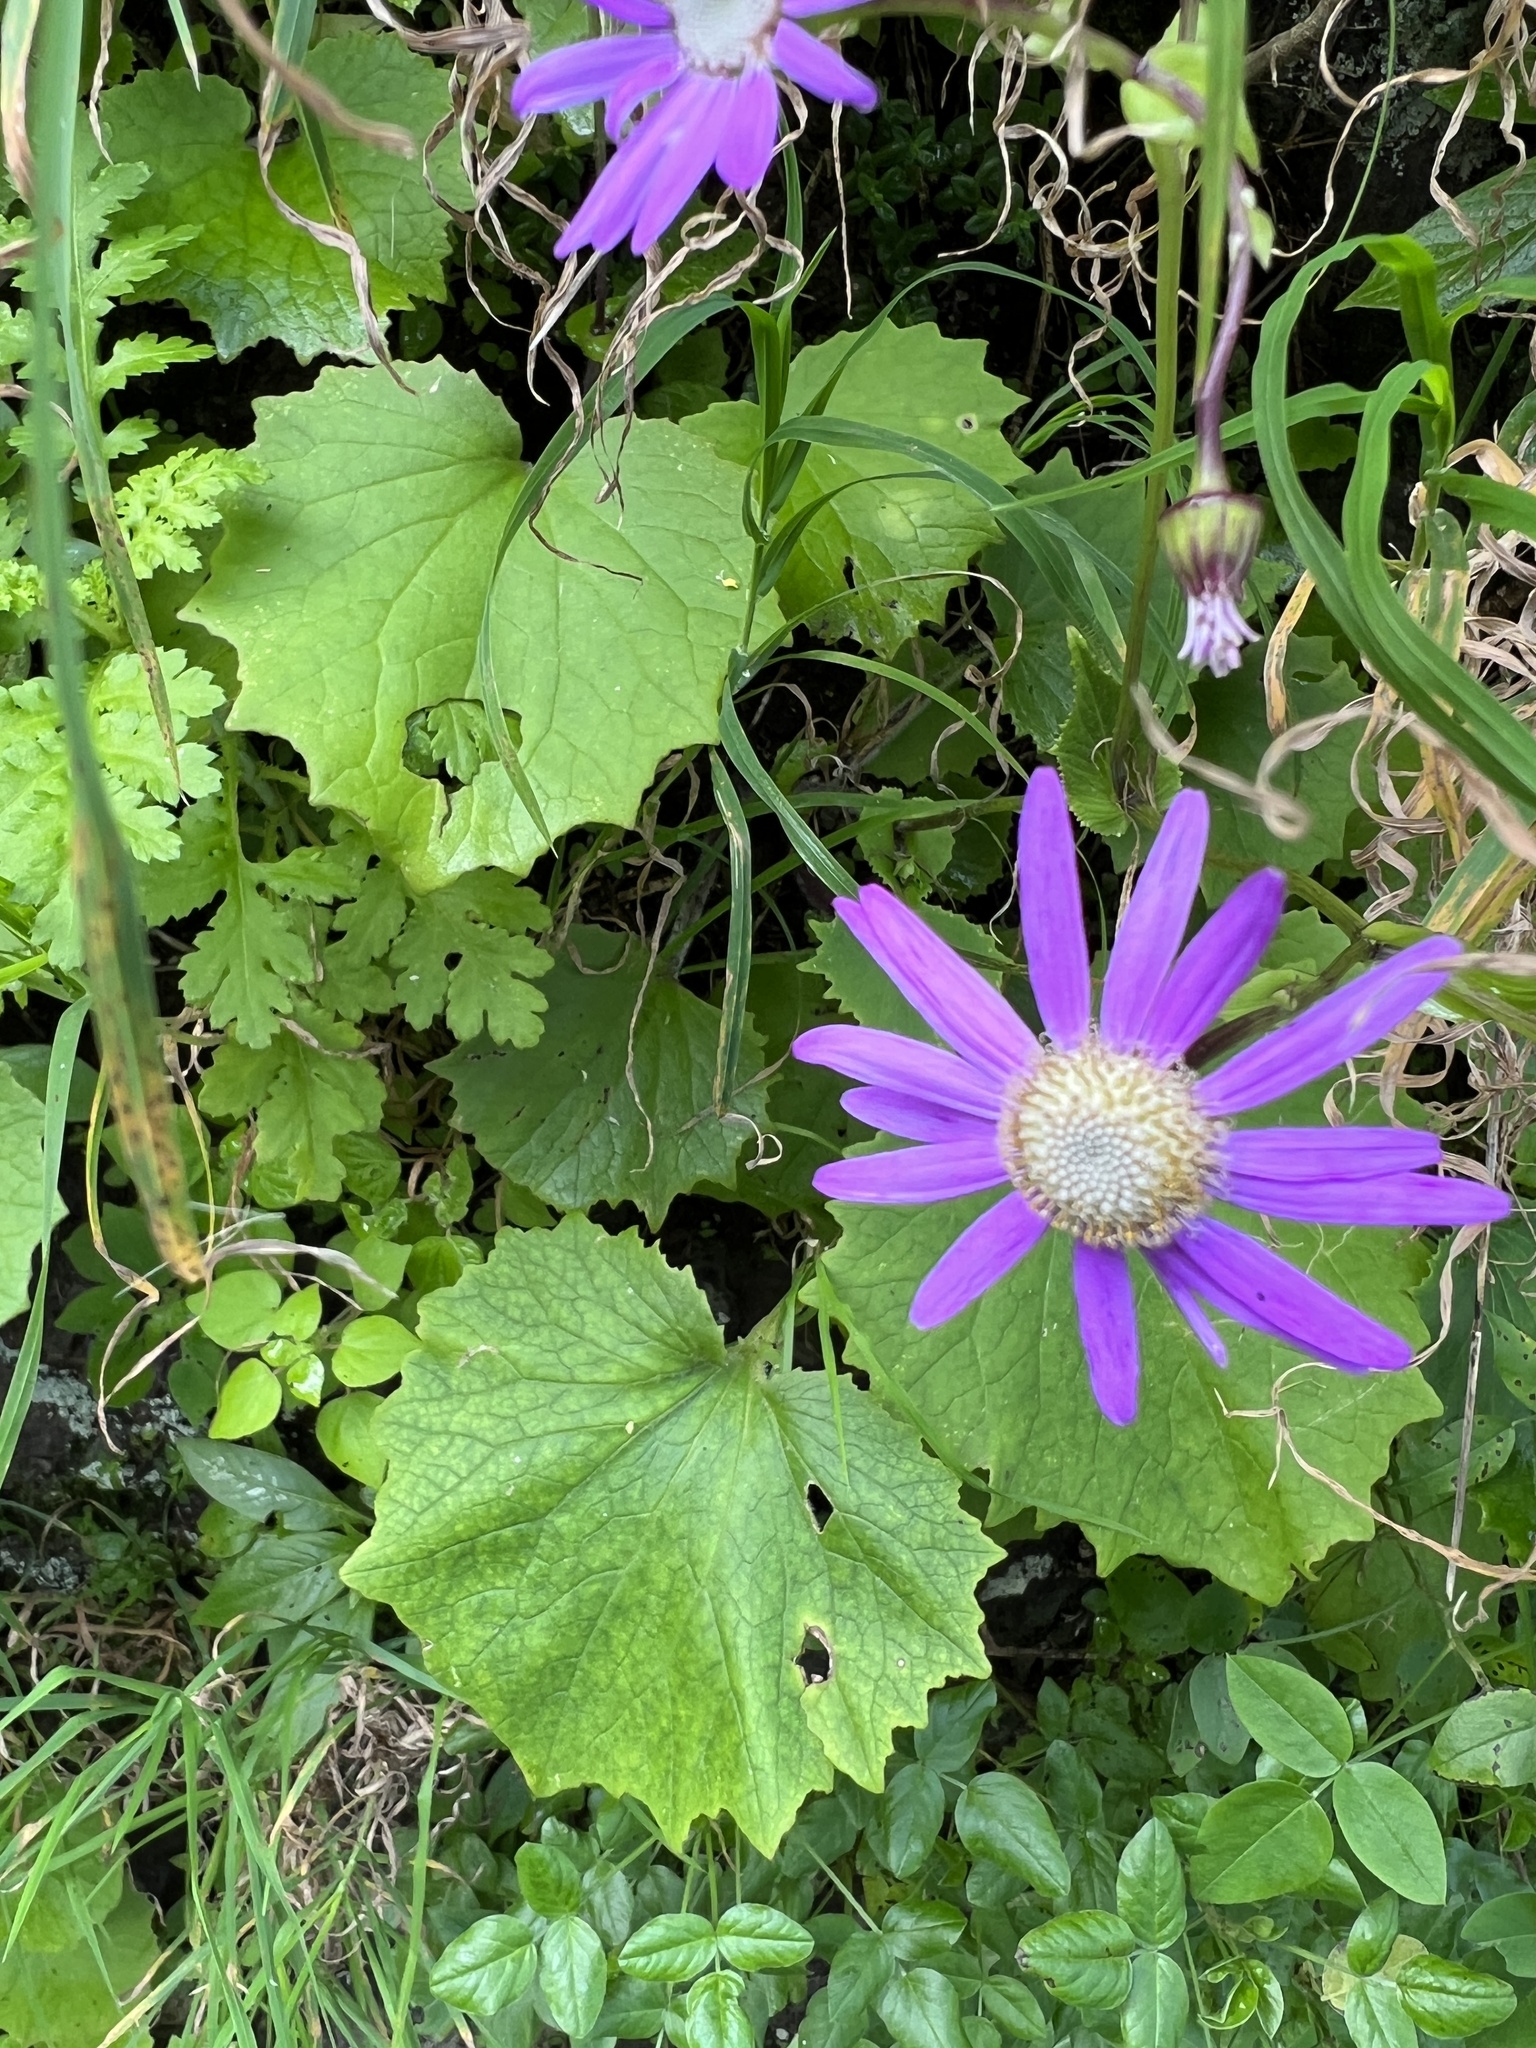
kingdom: Plantae
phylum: Tracheophyta
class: Magnoliopsida
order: Asterales
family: Asteraceae
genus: Pericallis
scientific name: Pericallis tussilaginis
